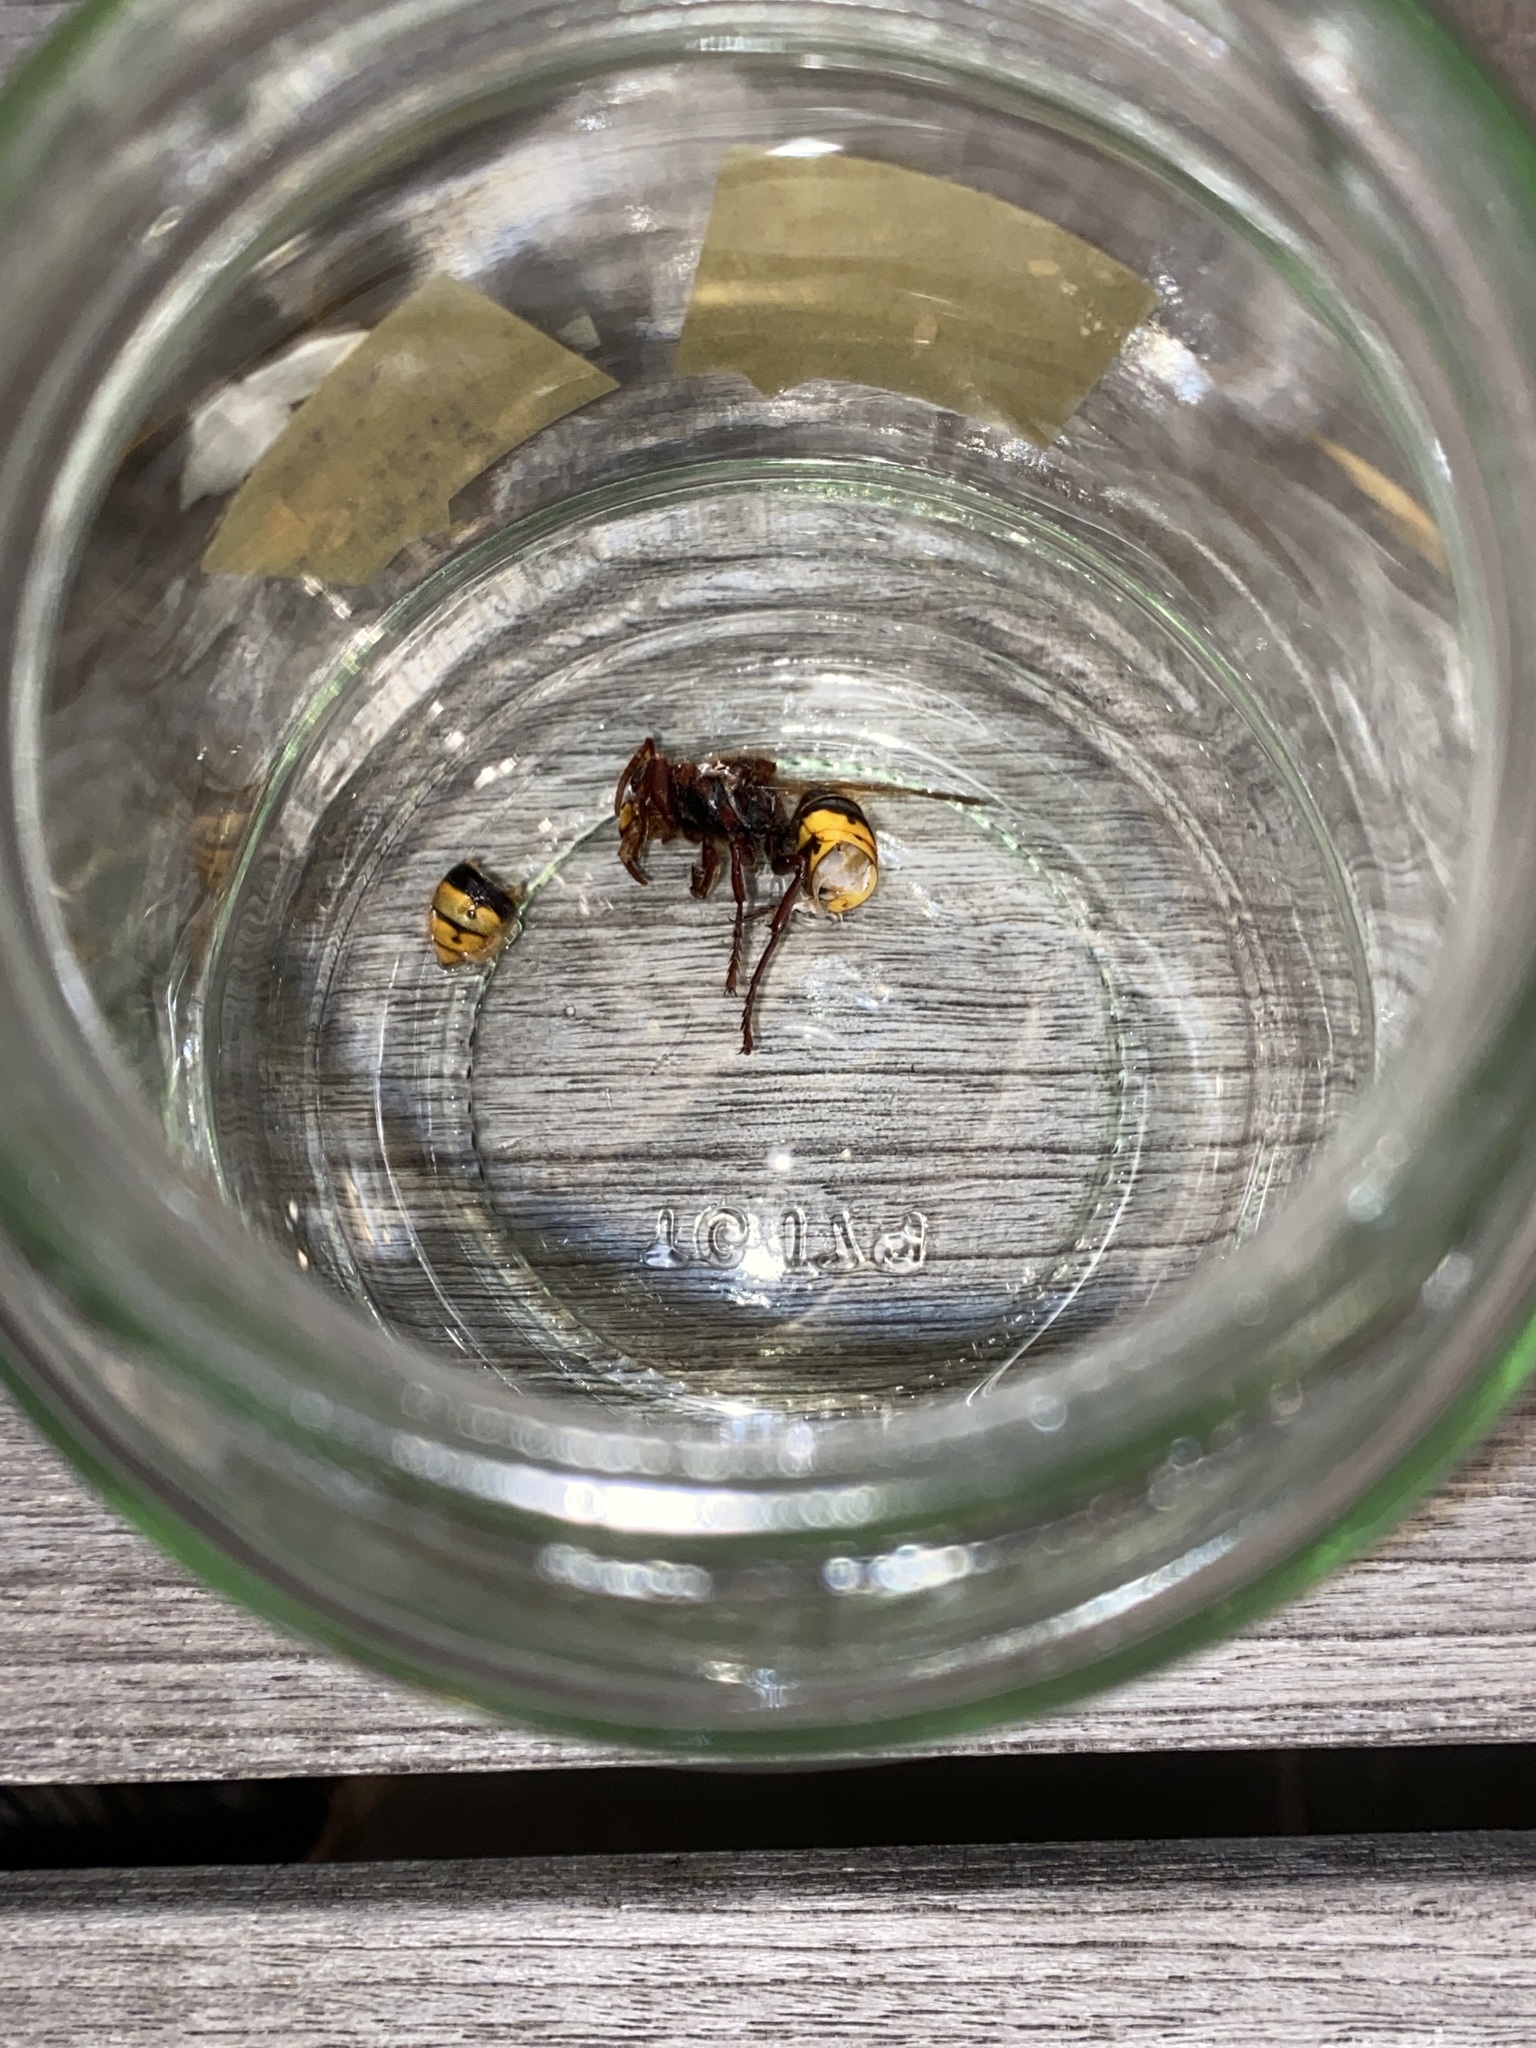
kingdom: Animalia
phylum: Arthropoda
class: Insecta
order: Hymenoptera
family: Vespidae
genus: Vespa
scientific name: Vespa crabro
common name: Hornet
